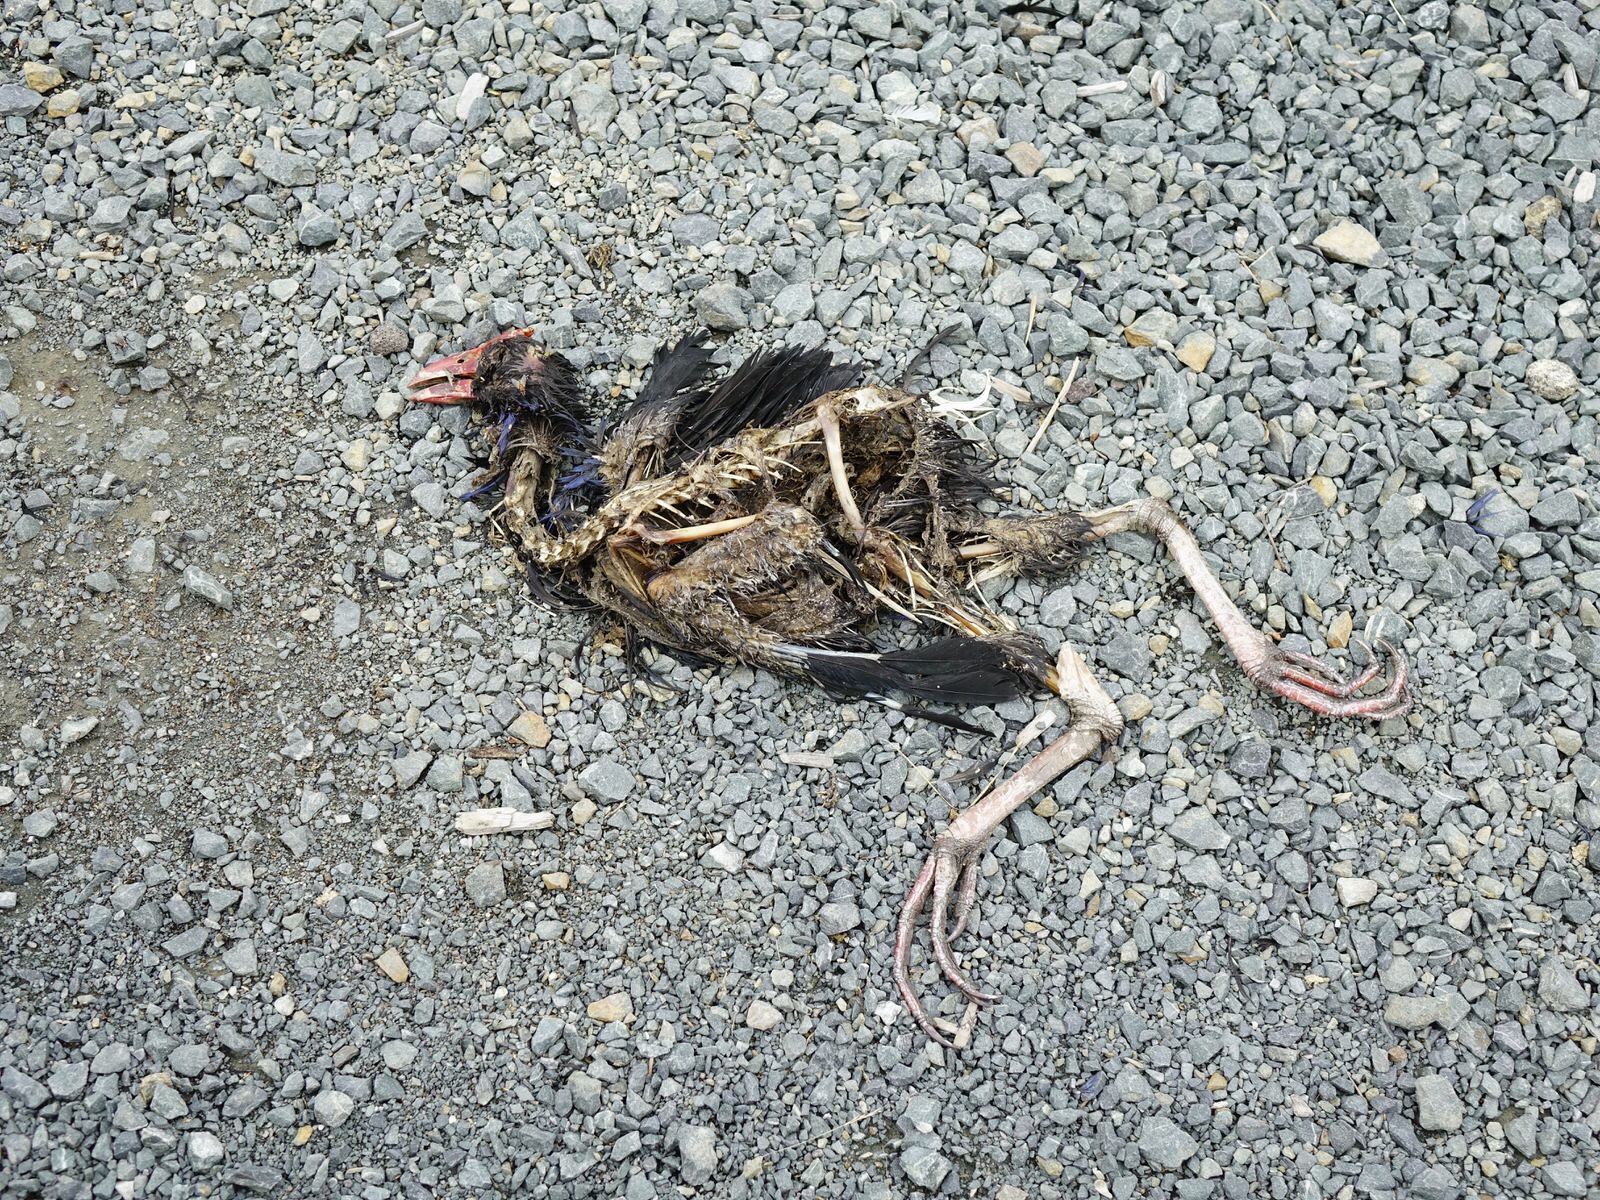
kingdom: Animalia
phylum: Chordata
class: Aves
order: Gruiformes
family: Rallidae
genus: Porphyrio
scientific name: Porphyrio melanotus
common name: Australasian swamphen
